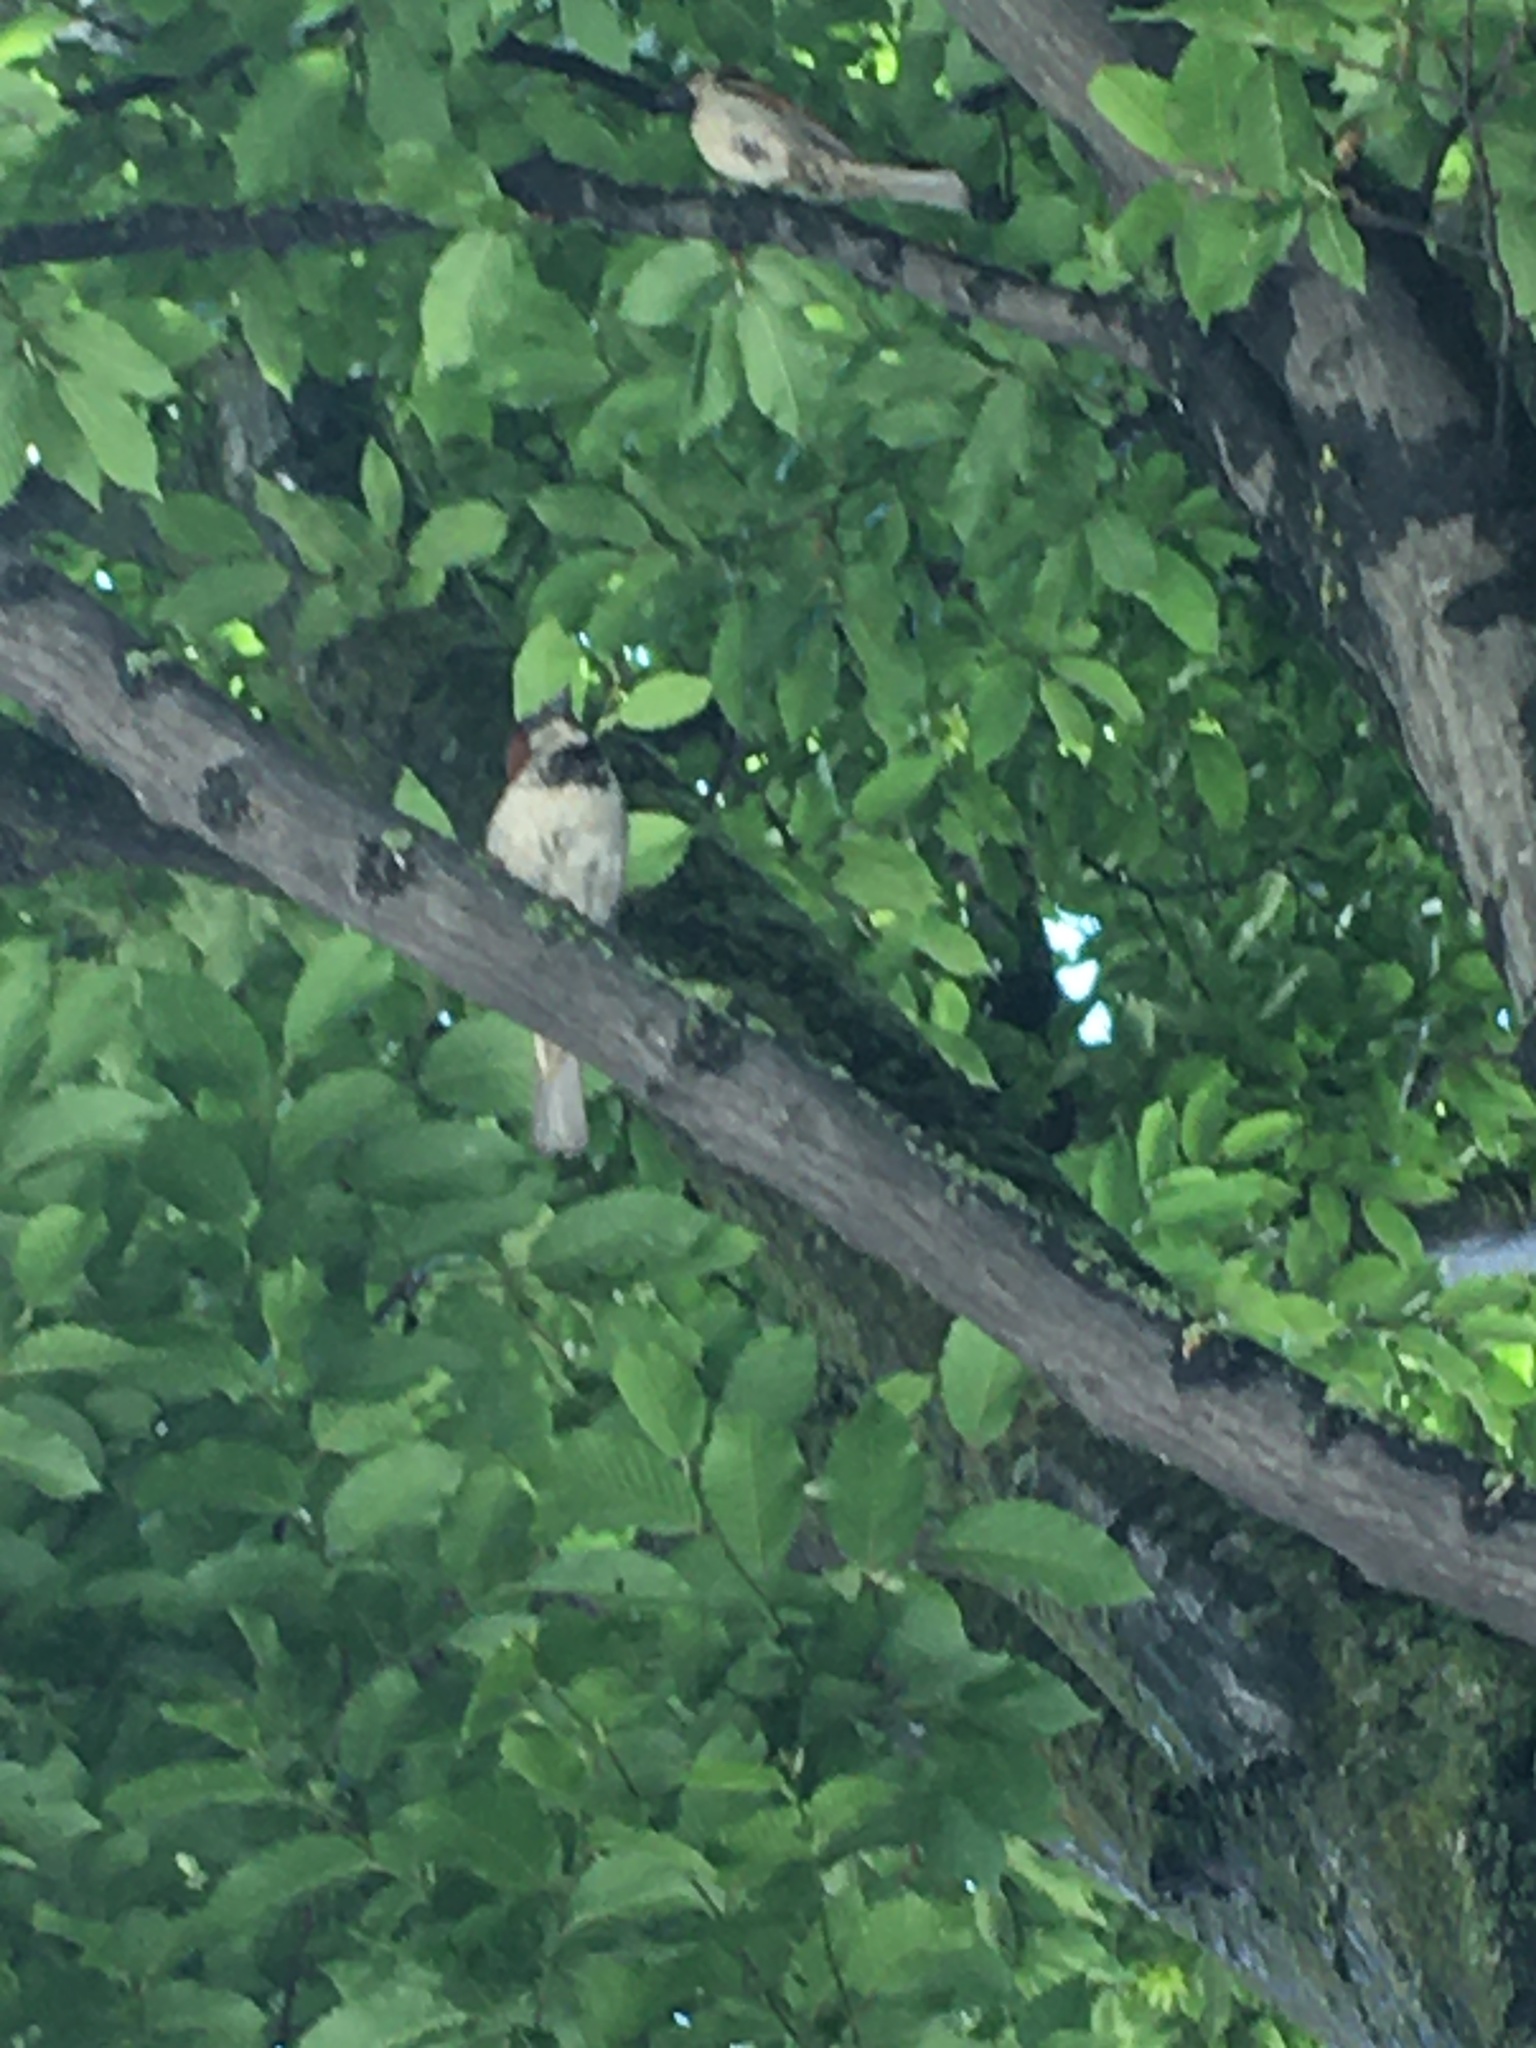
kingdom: Animalia
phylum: Chordata
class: Aves
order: Passeriformes
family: Passeridae
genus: Passer
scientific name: Passer domesticus
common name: House sparrow
